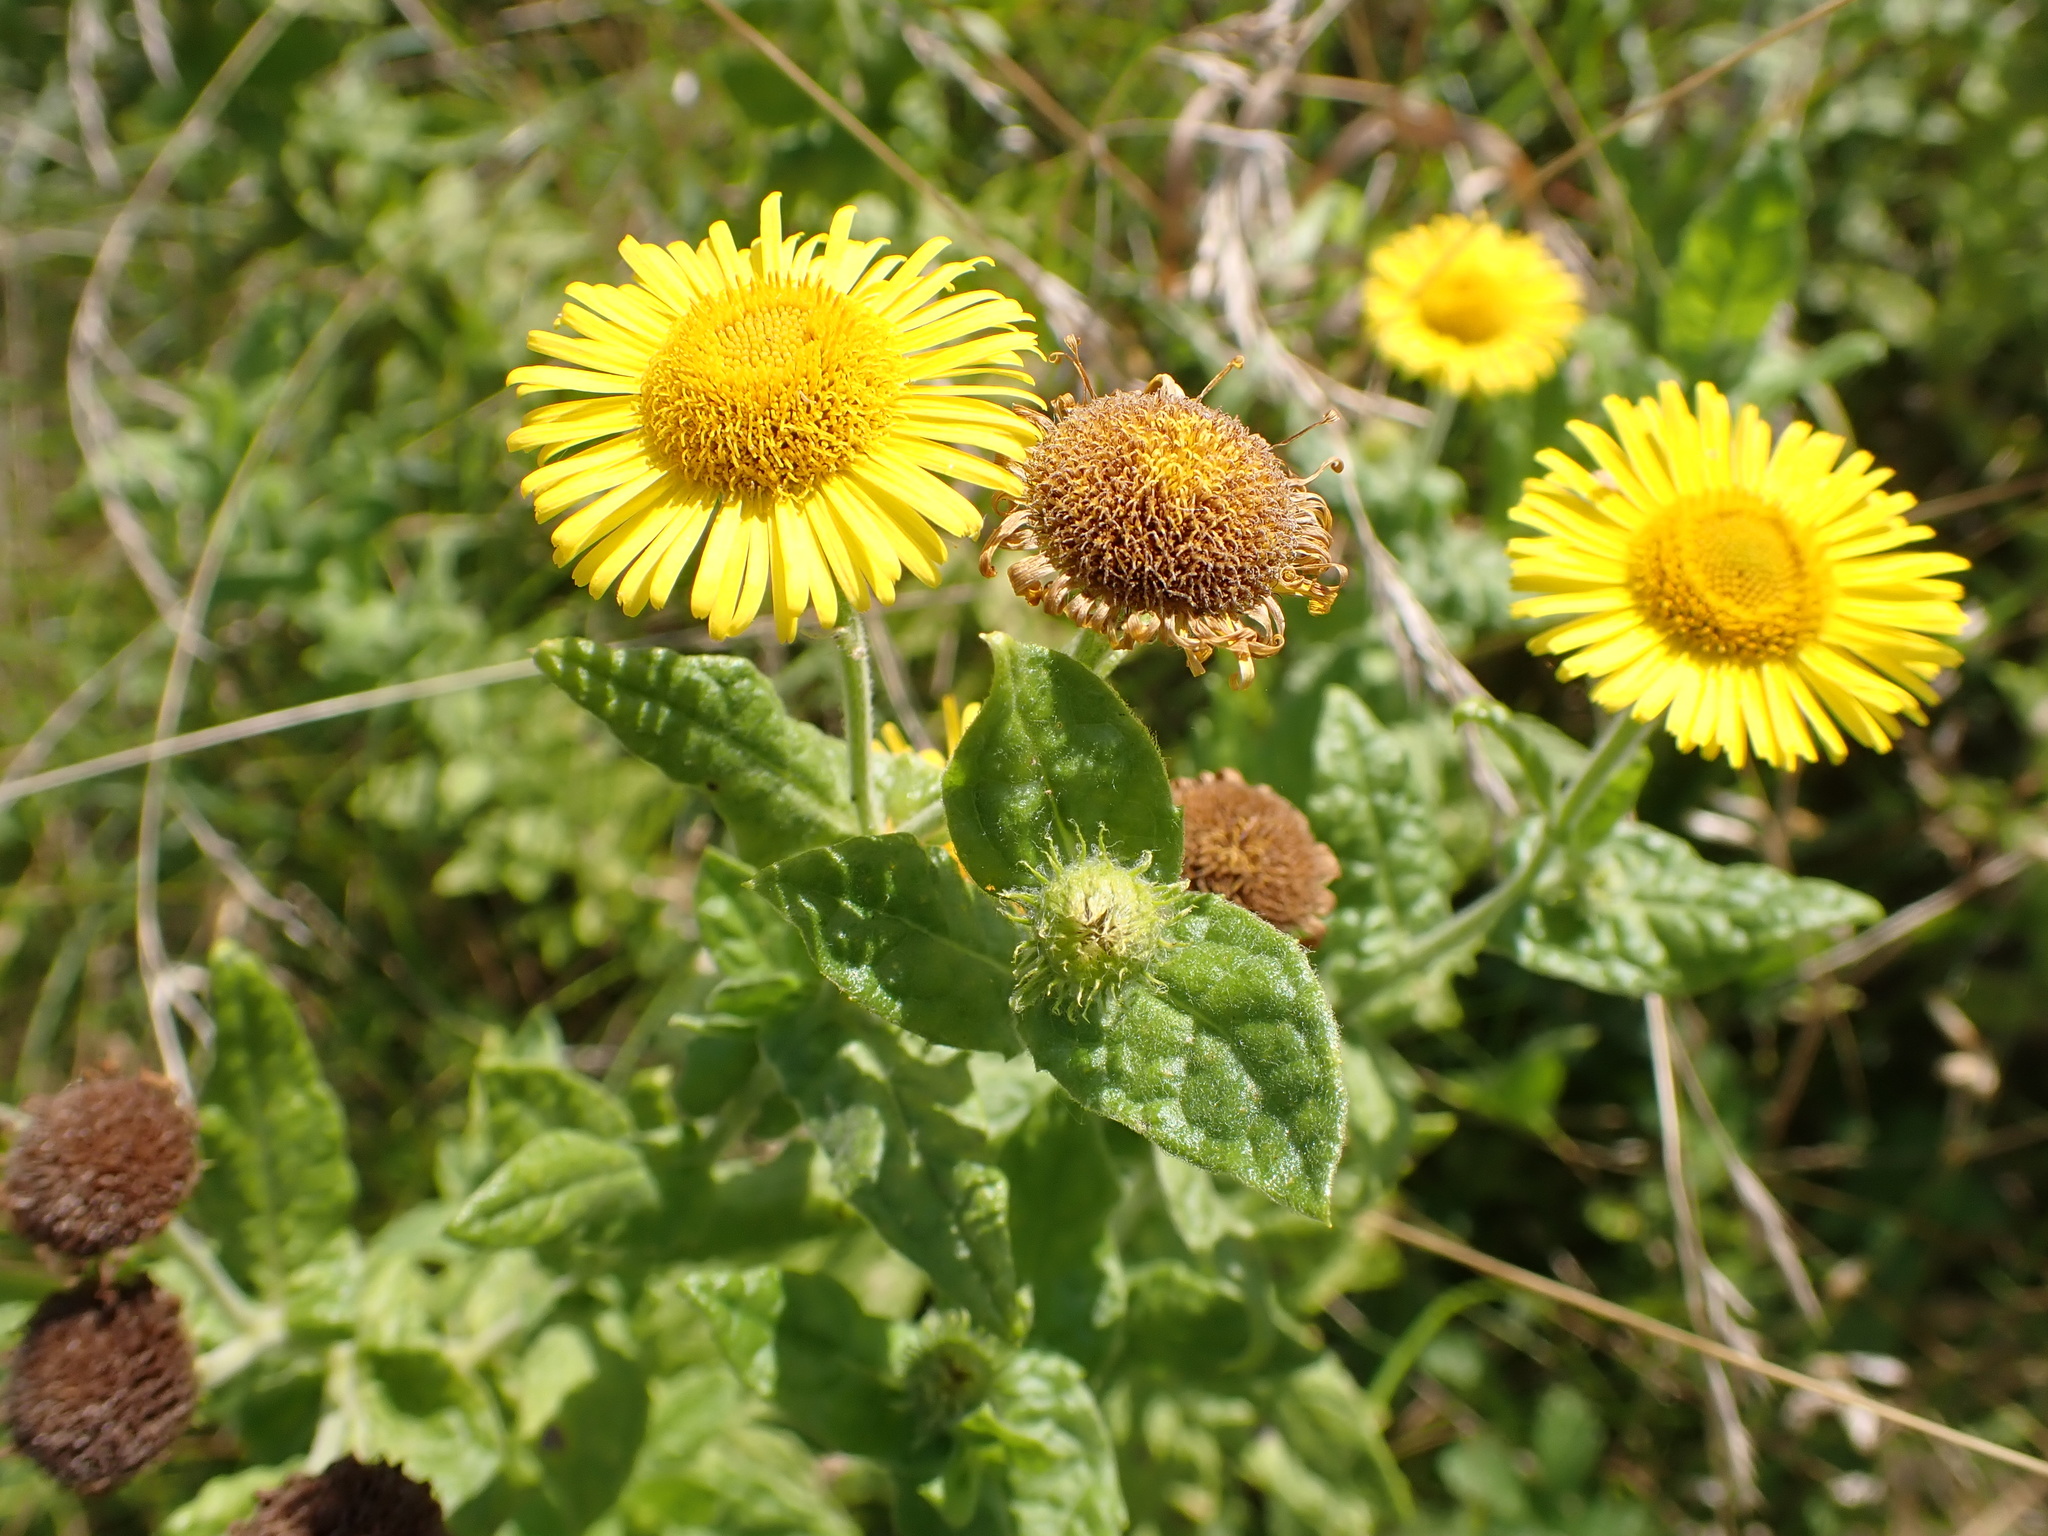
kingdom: Plantae
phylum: Tracheophyta
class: Magnoliopsida
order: Asterales
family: Asteraceae
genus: Pulicaria
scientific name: Pulicaria dysenterica
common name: Common fleabane
